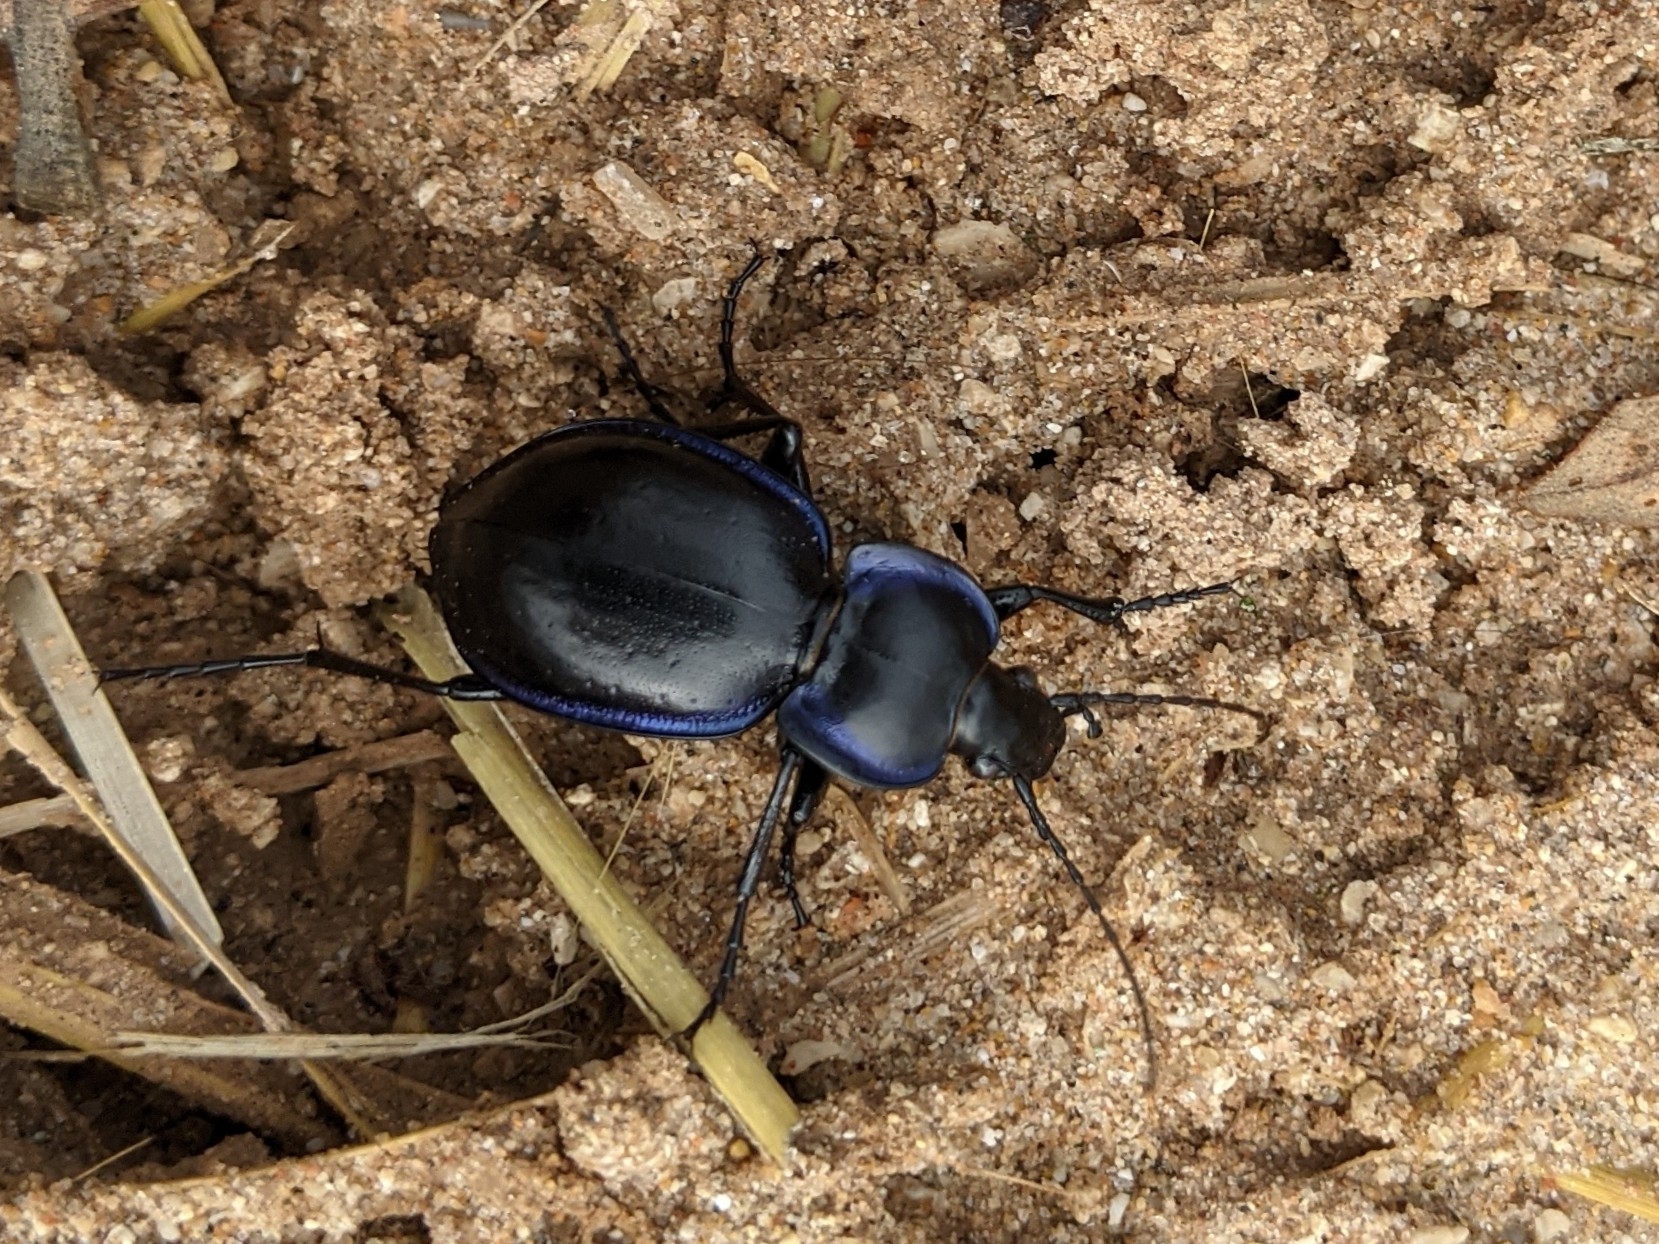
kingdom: Animalia
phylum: Arthropoda
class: Insecta
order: Coleoptera
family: Carabidae
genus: Carabus
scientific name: Carabus finitimus
